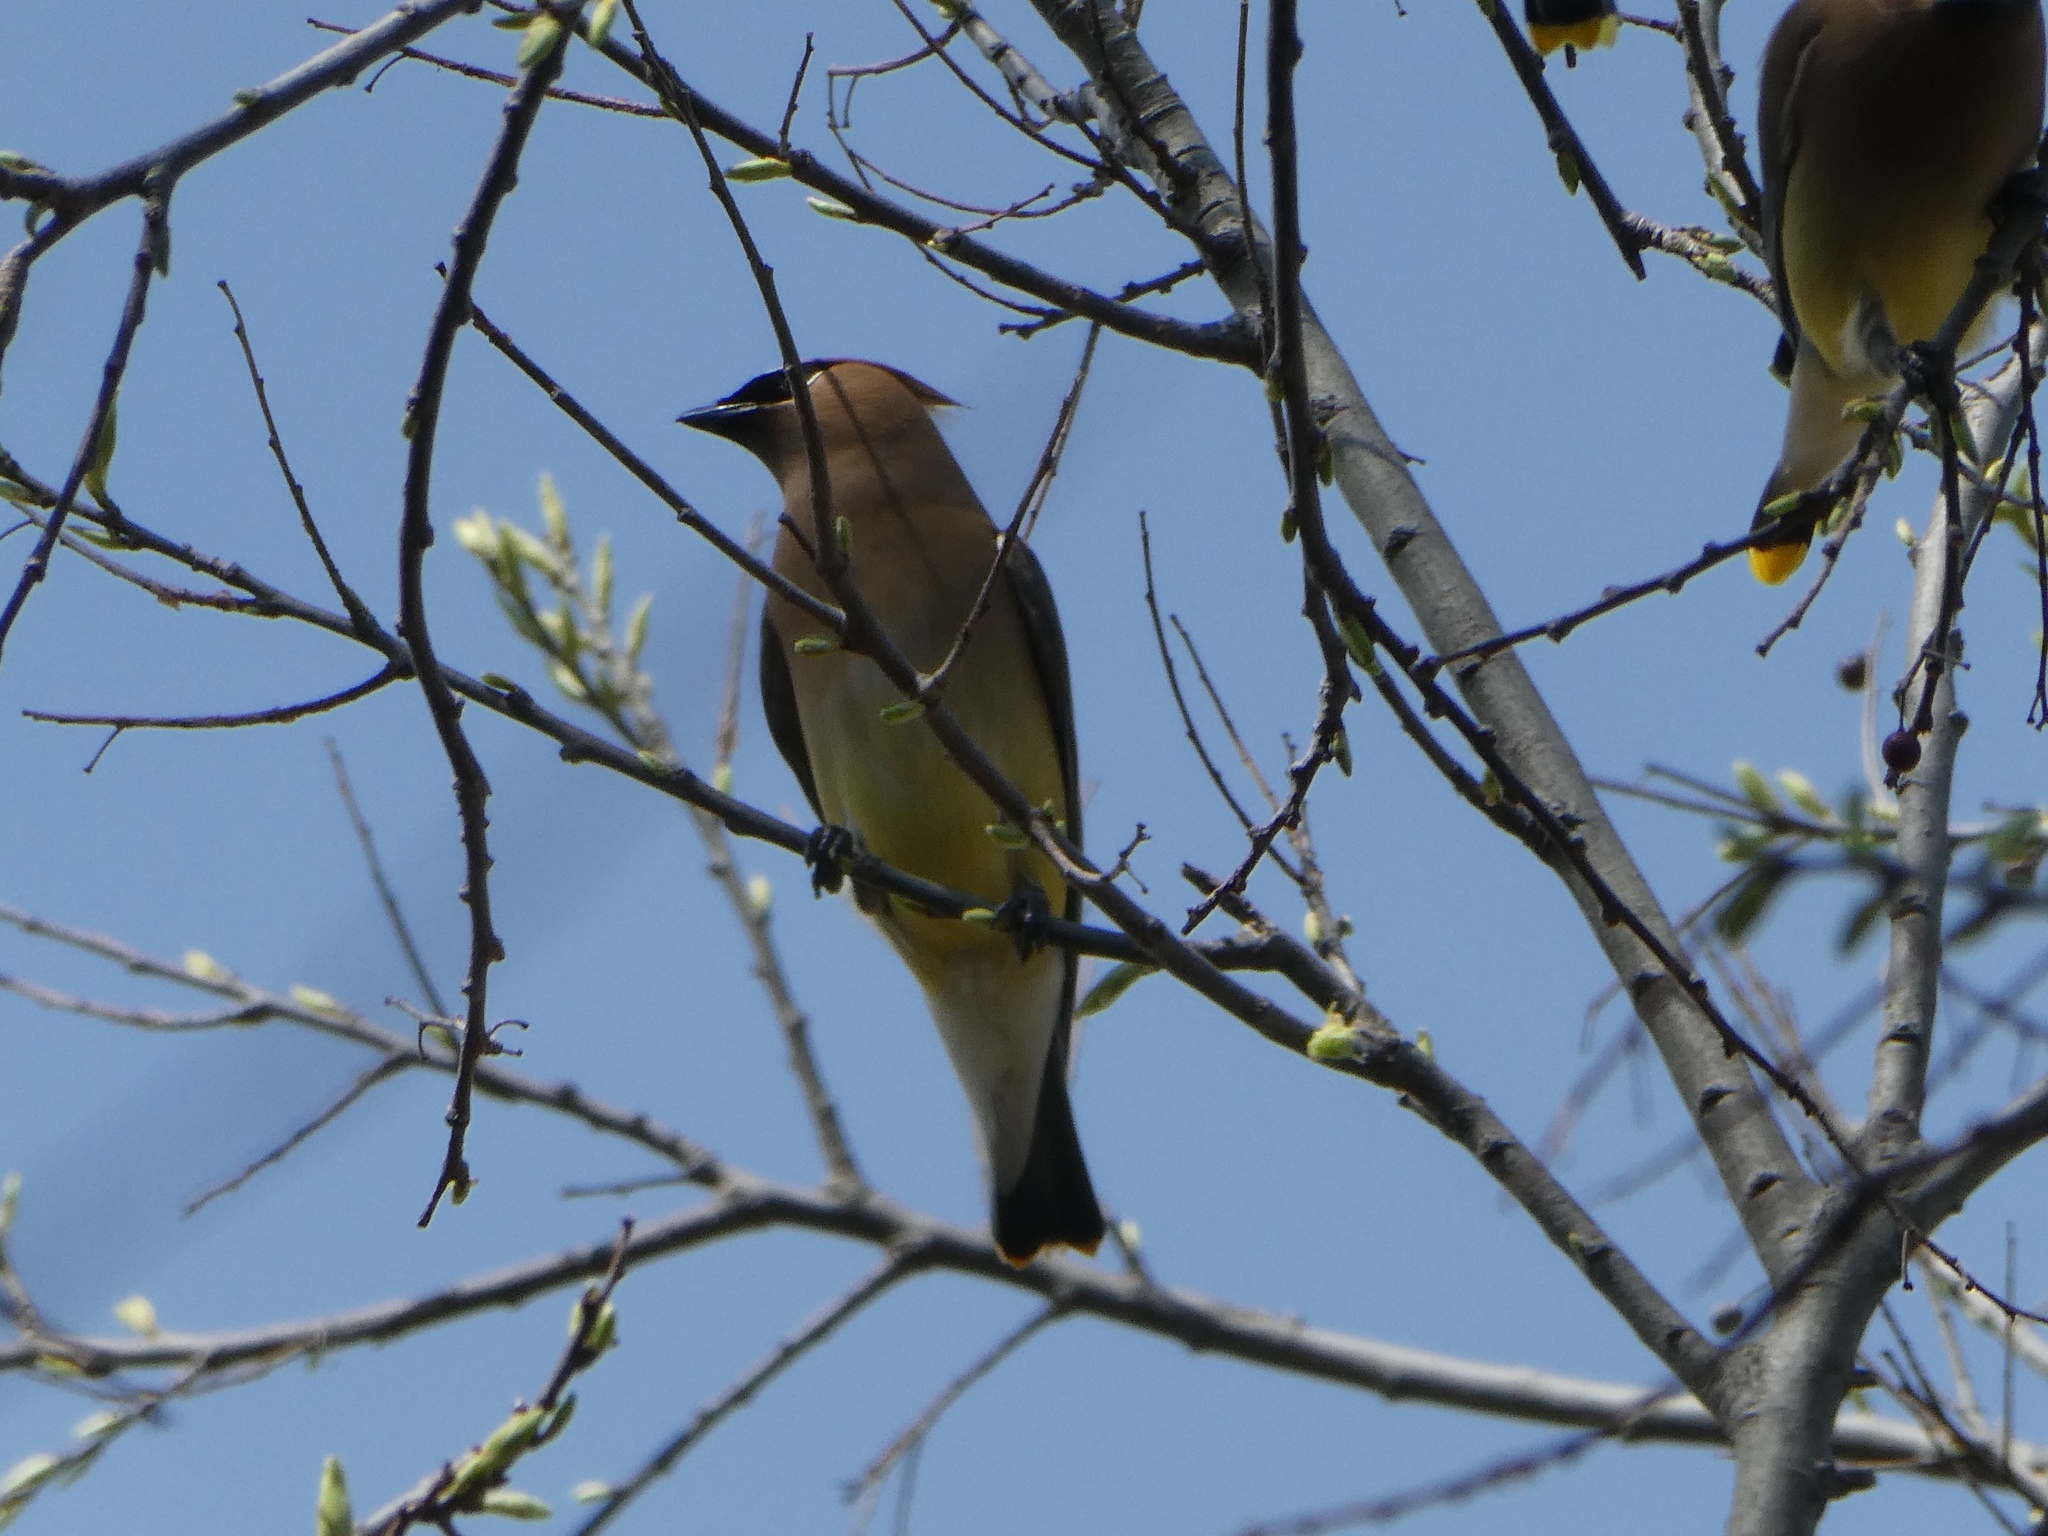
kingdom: Animalia
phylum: Chordata
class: Aves
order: Passeriformes
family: Bombycillidae
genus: Bombycilla
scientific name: Bombycilla cedrorum
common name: Cedar waxwing
